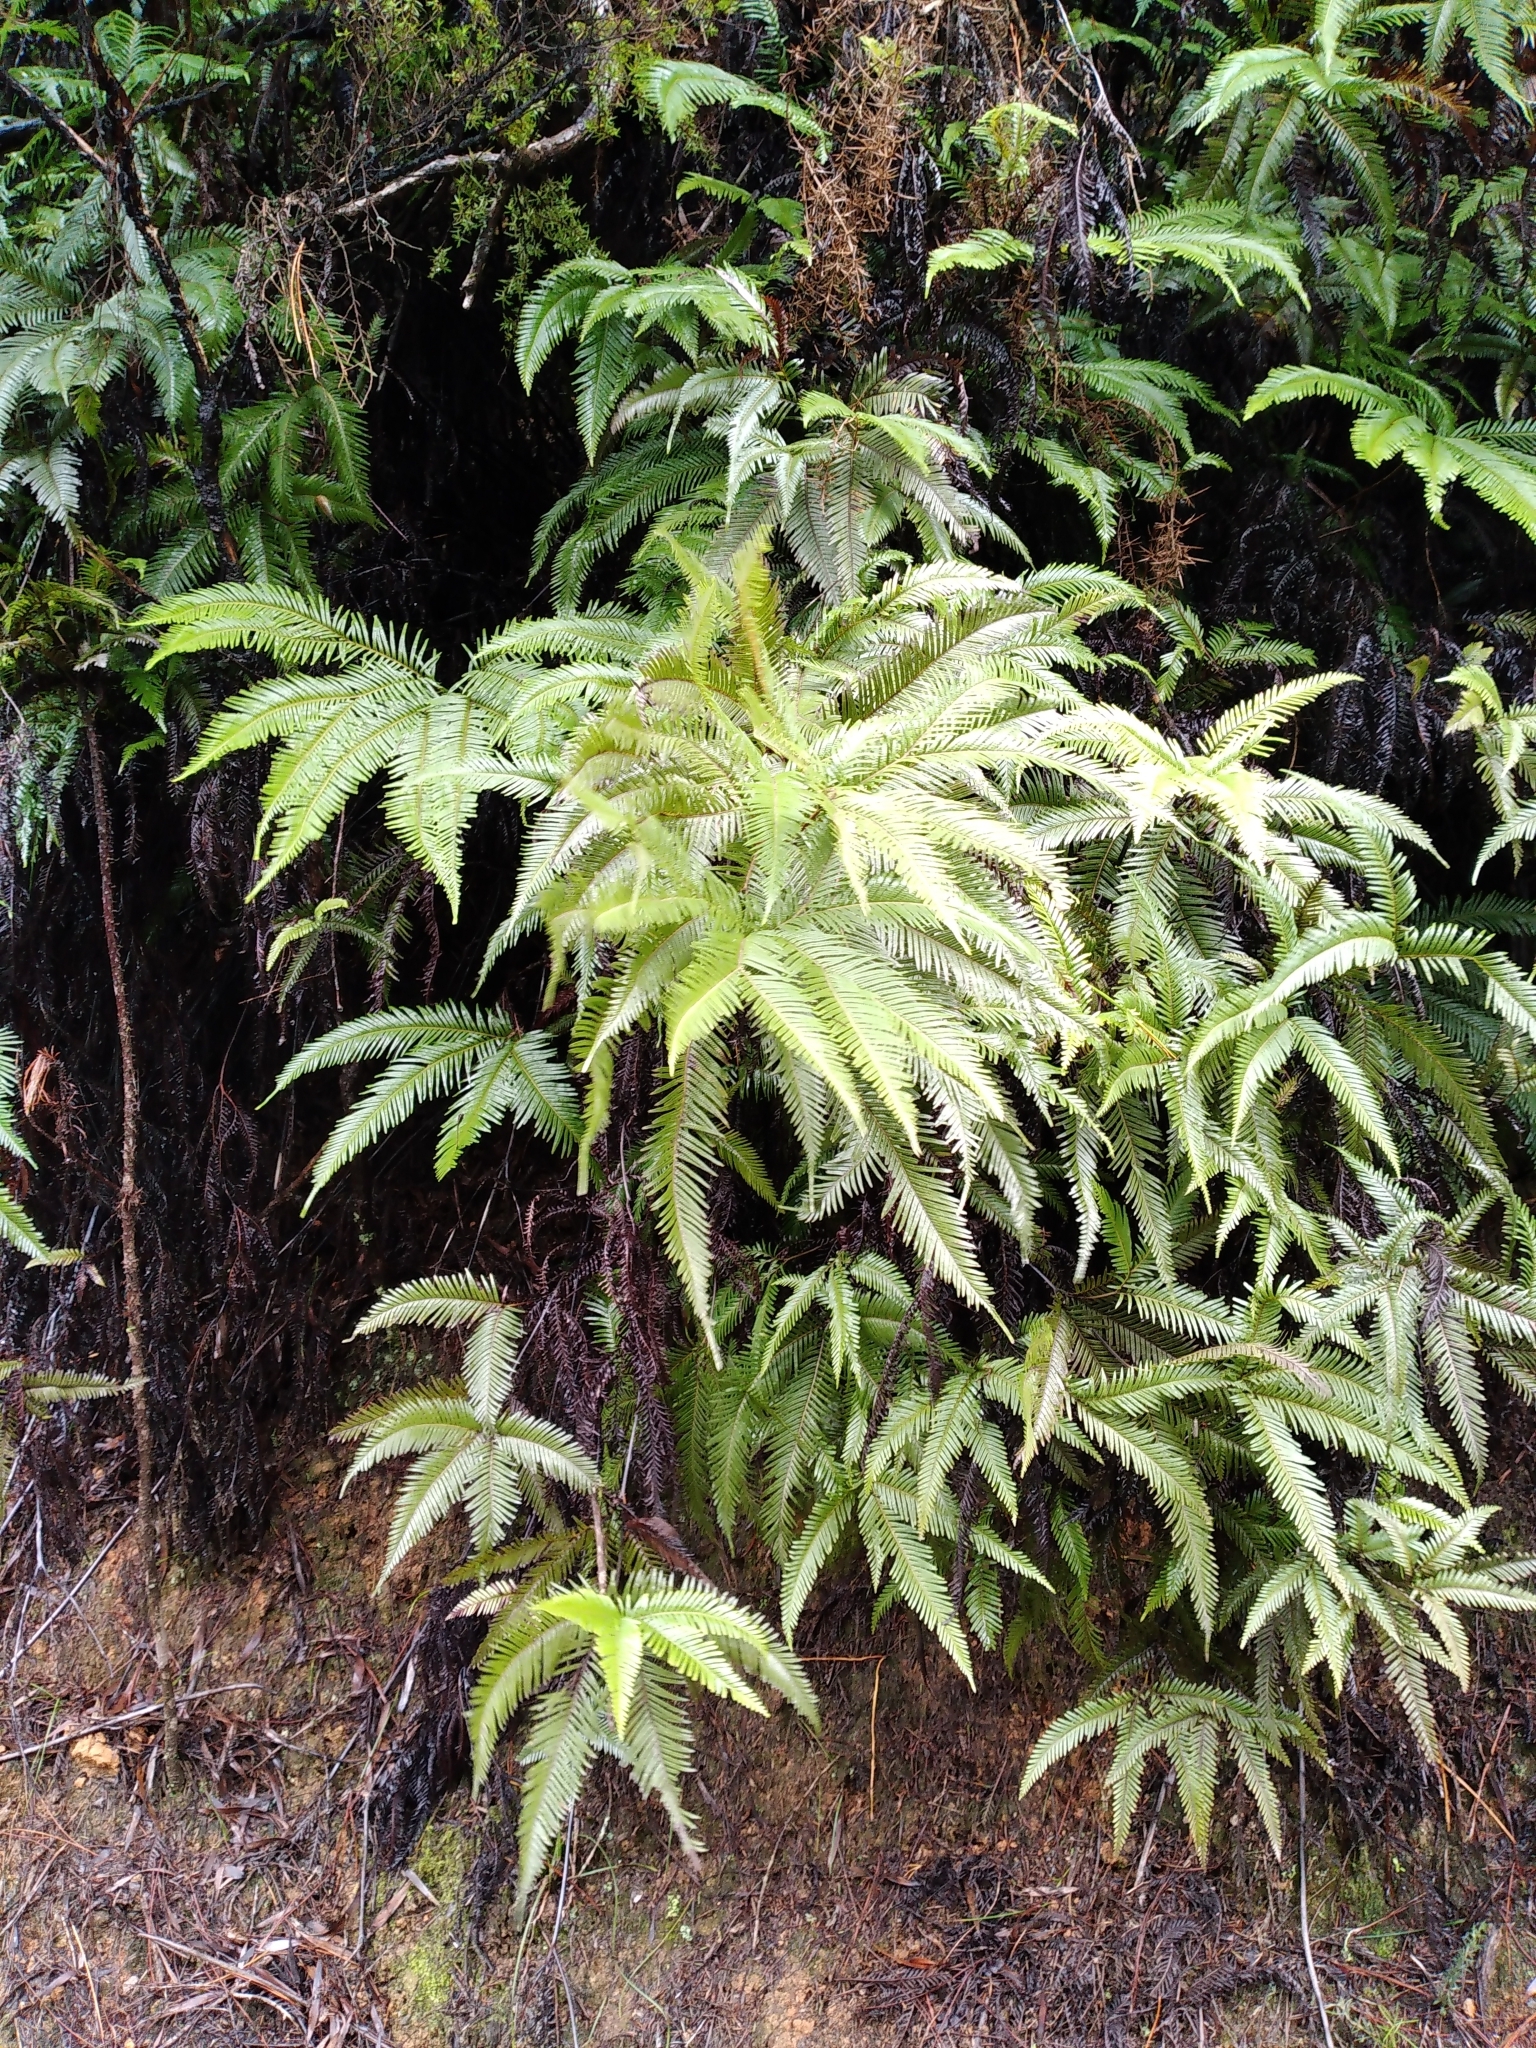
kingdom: Plantae
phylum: Tracheophyta
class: Polypodiopsida
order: Gleicheniales
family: Gleicheniaceae
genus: Sticherus
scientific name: Sticherus flabellatus
